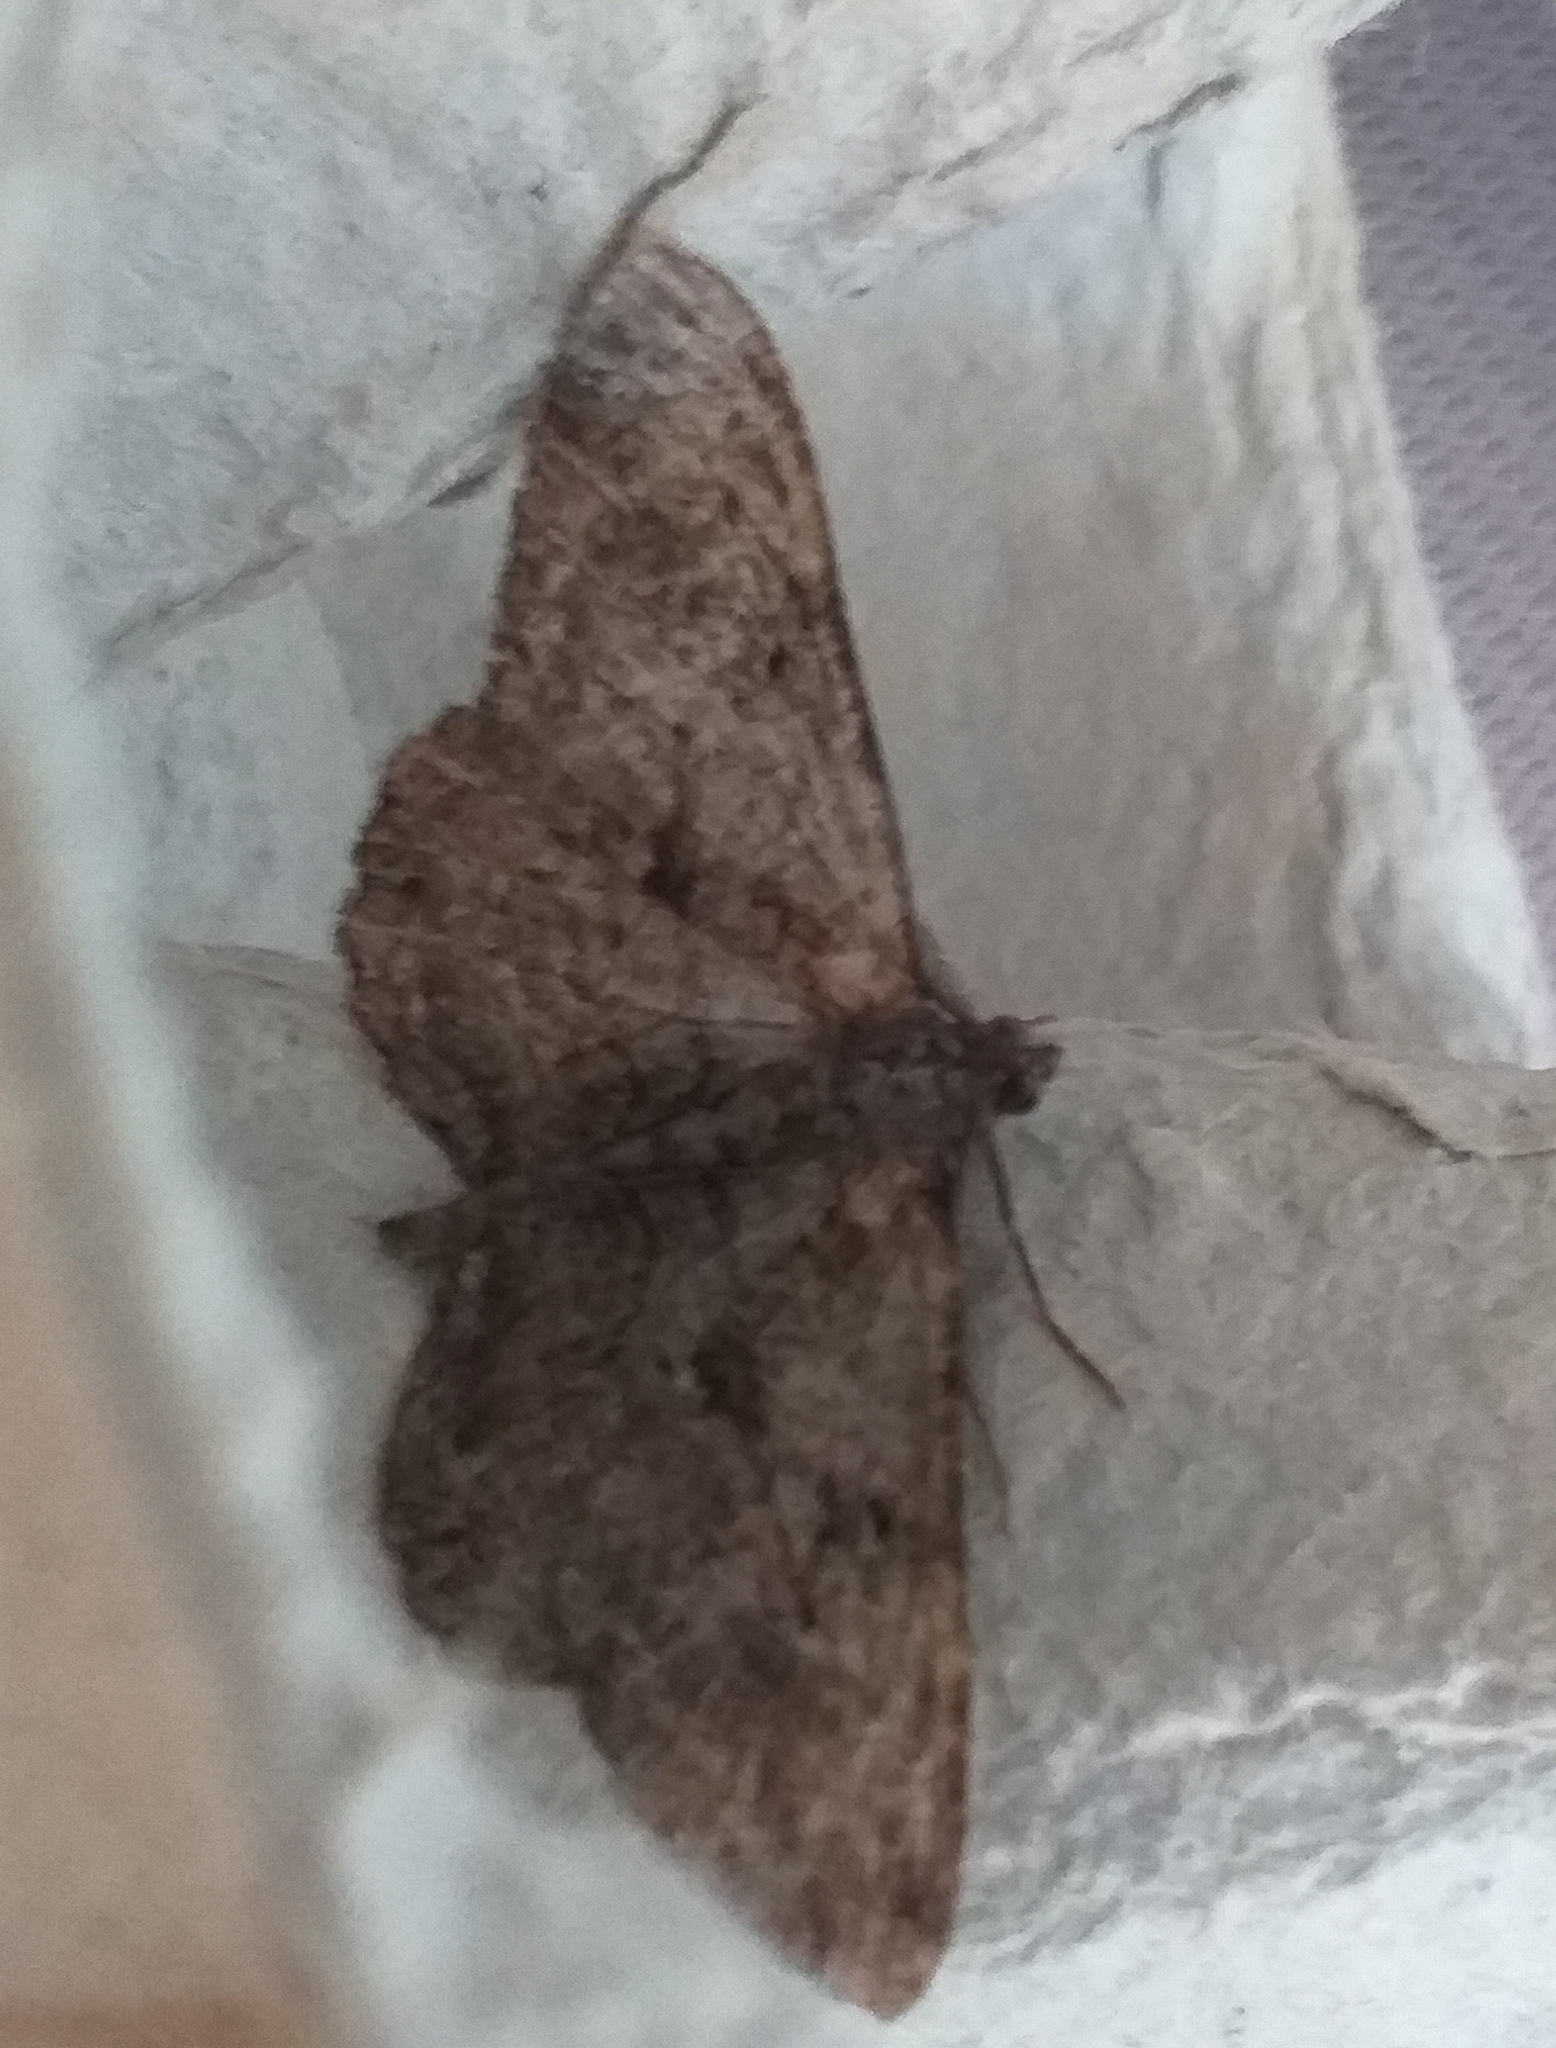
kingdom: Animalia
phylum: Arthropoda
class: Insecta
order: Lepidoptera
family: Geometridae
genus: Peribatodes
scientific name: Peribatodes rhomboidaria
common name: Willow beauty
